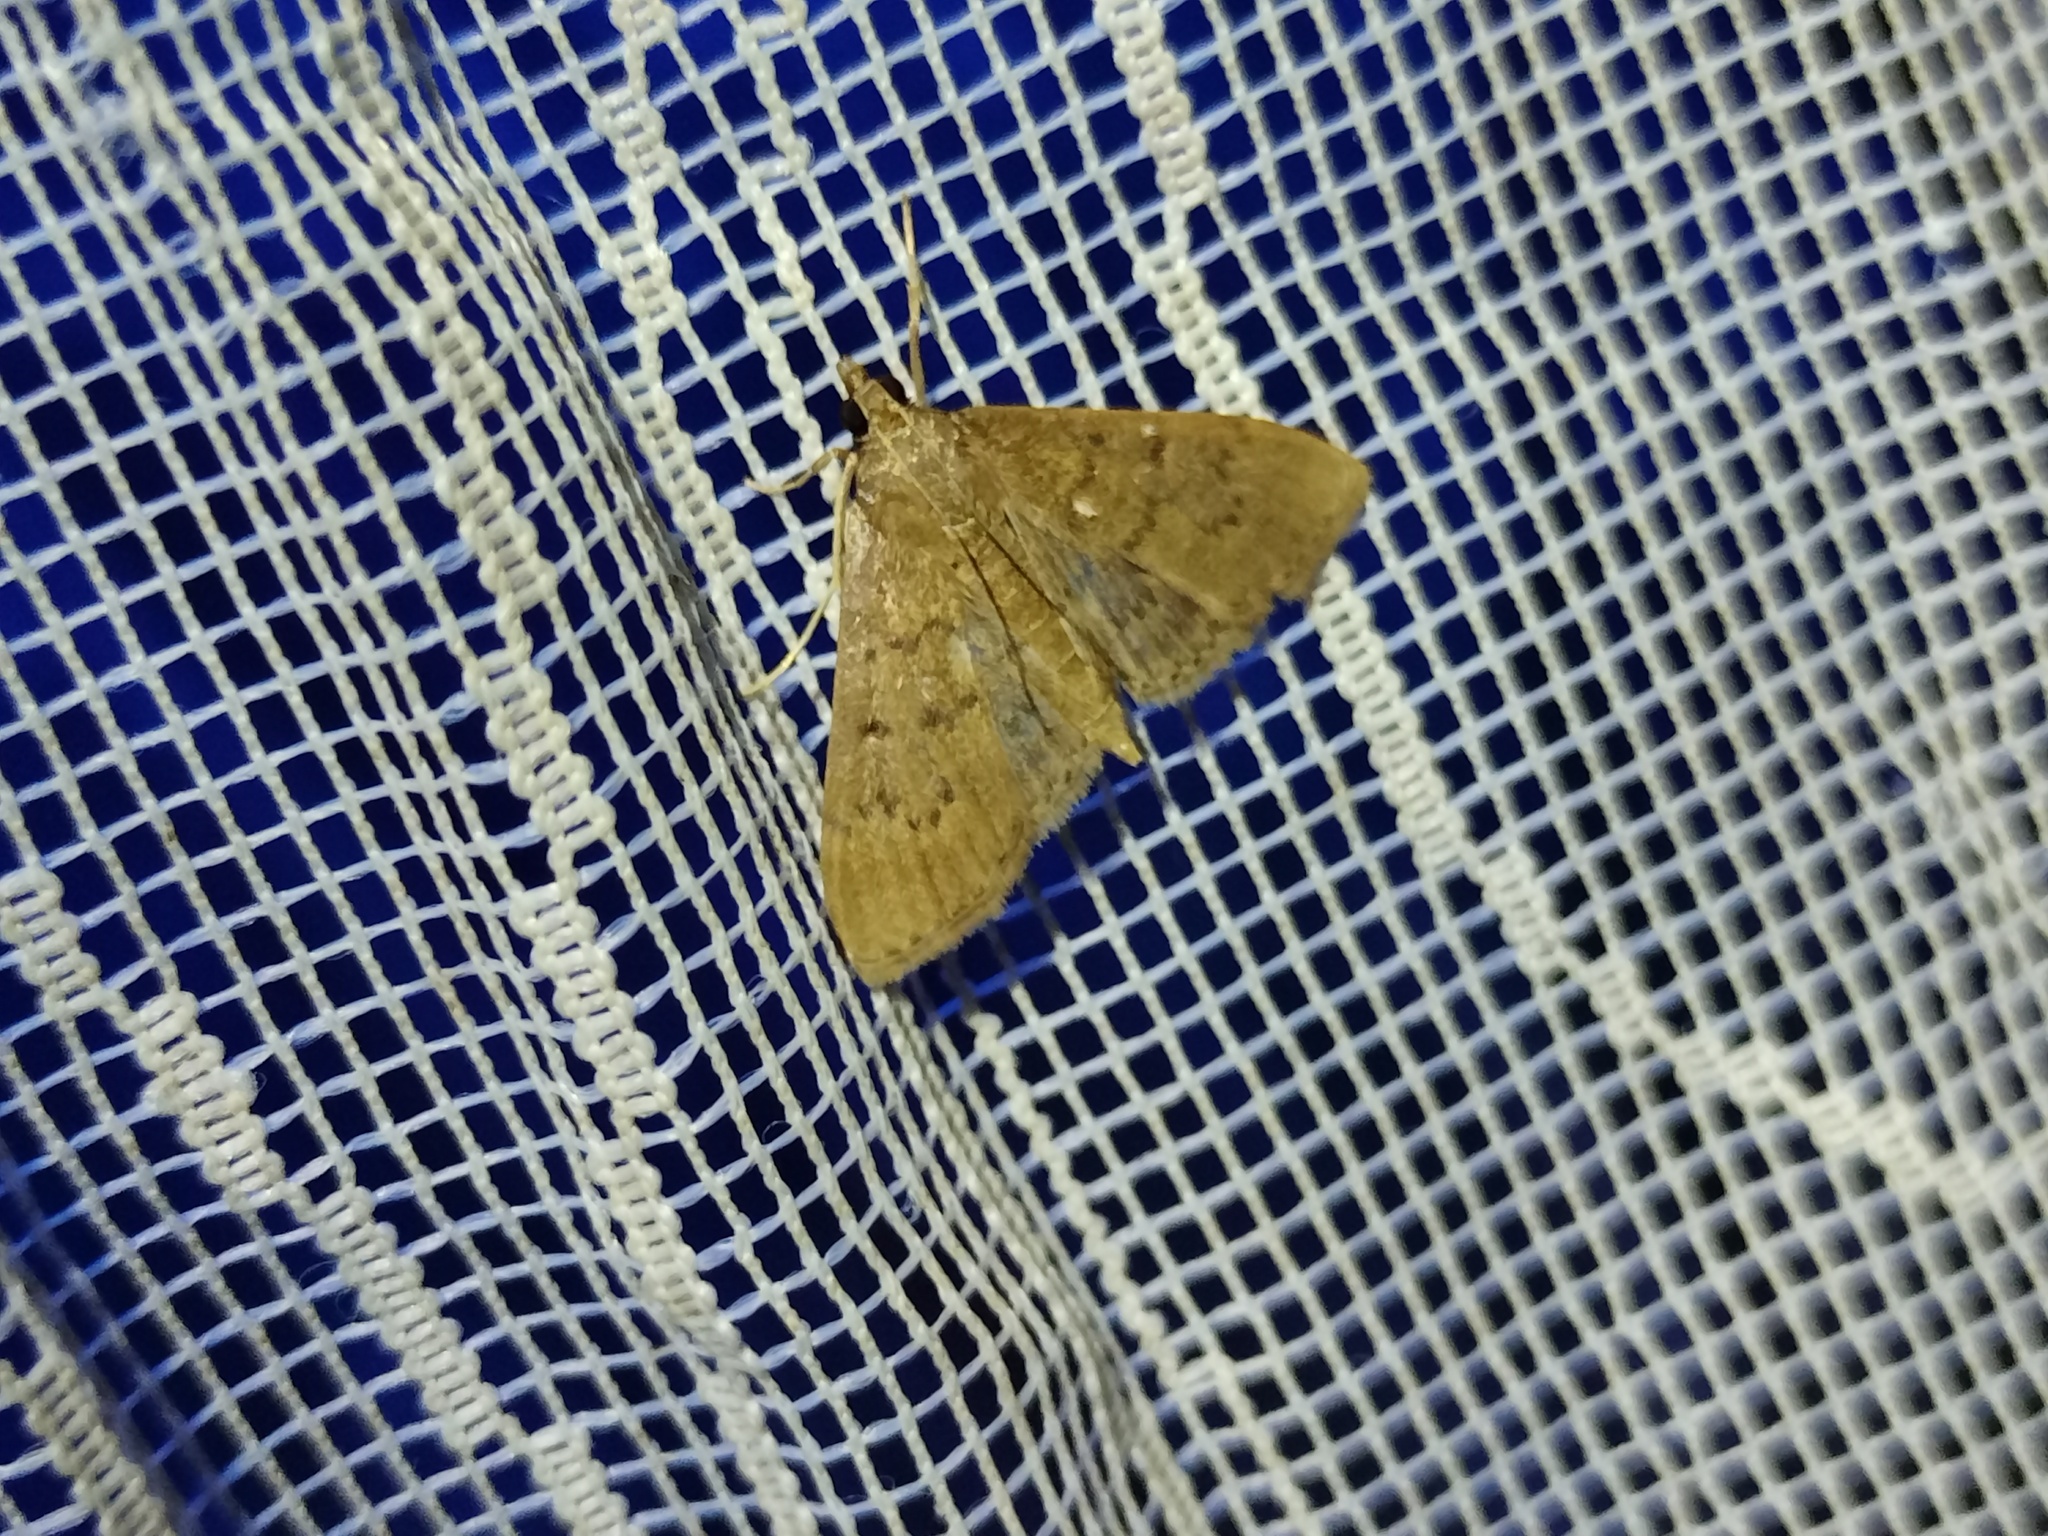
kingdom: Animalia
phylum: Arthropoda
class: Insecta
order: Lepidoptera
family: Crambidae
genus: Herpetogramma
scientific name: Herpetogramma licarsisalis
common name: Grass webworm
